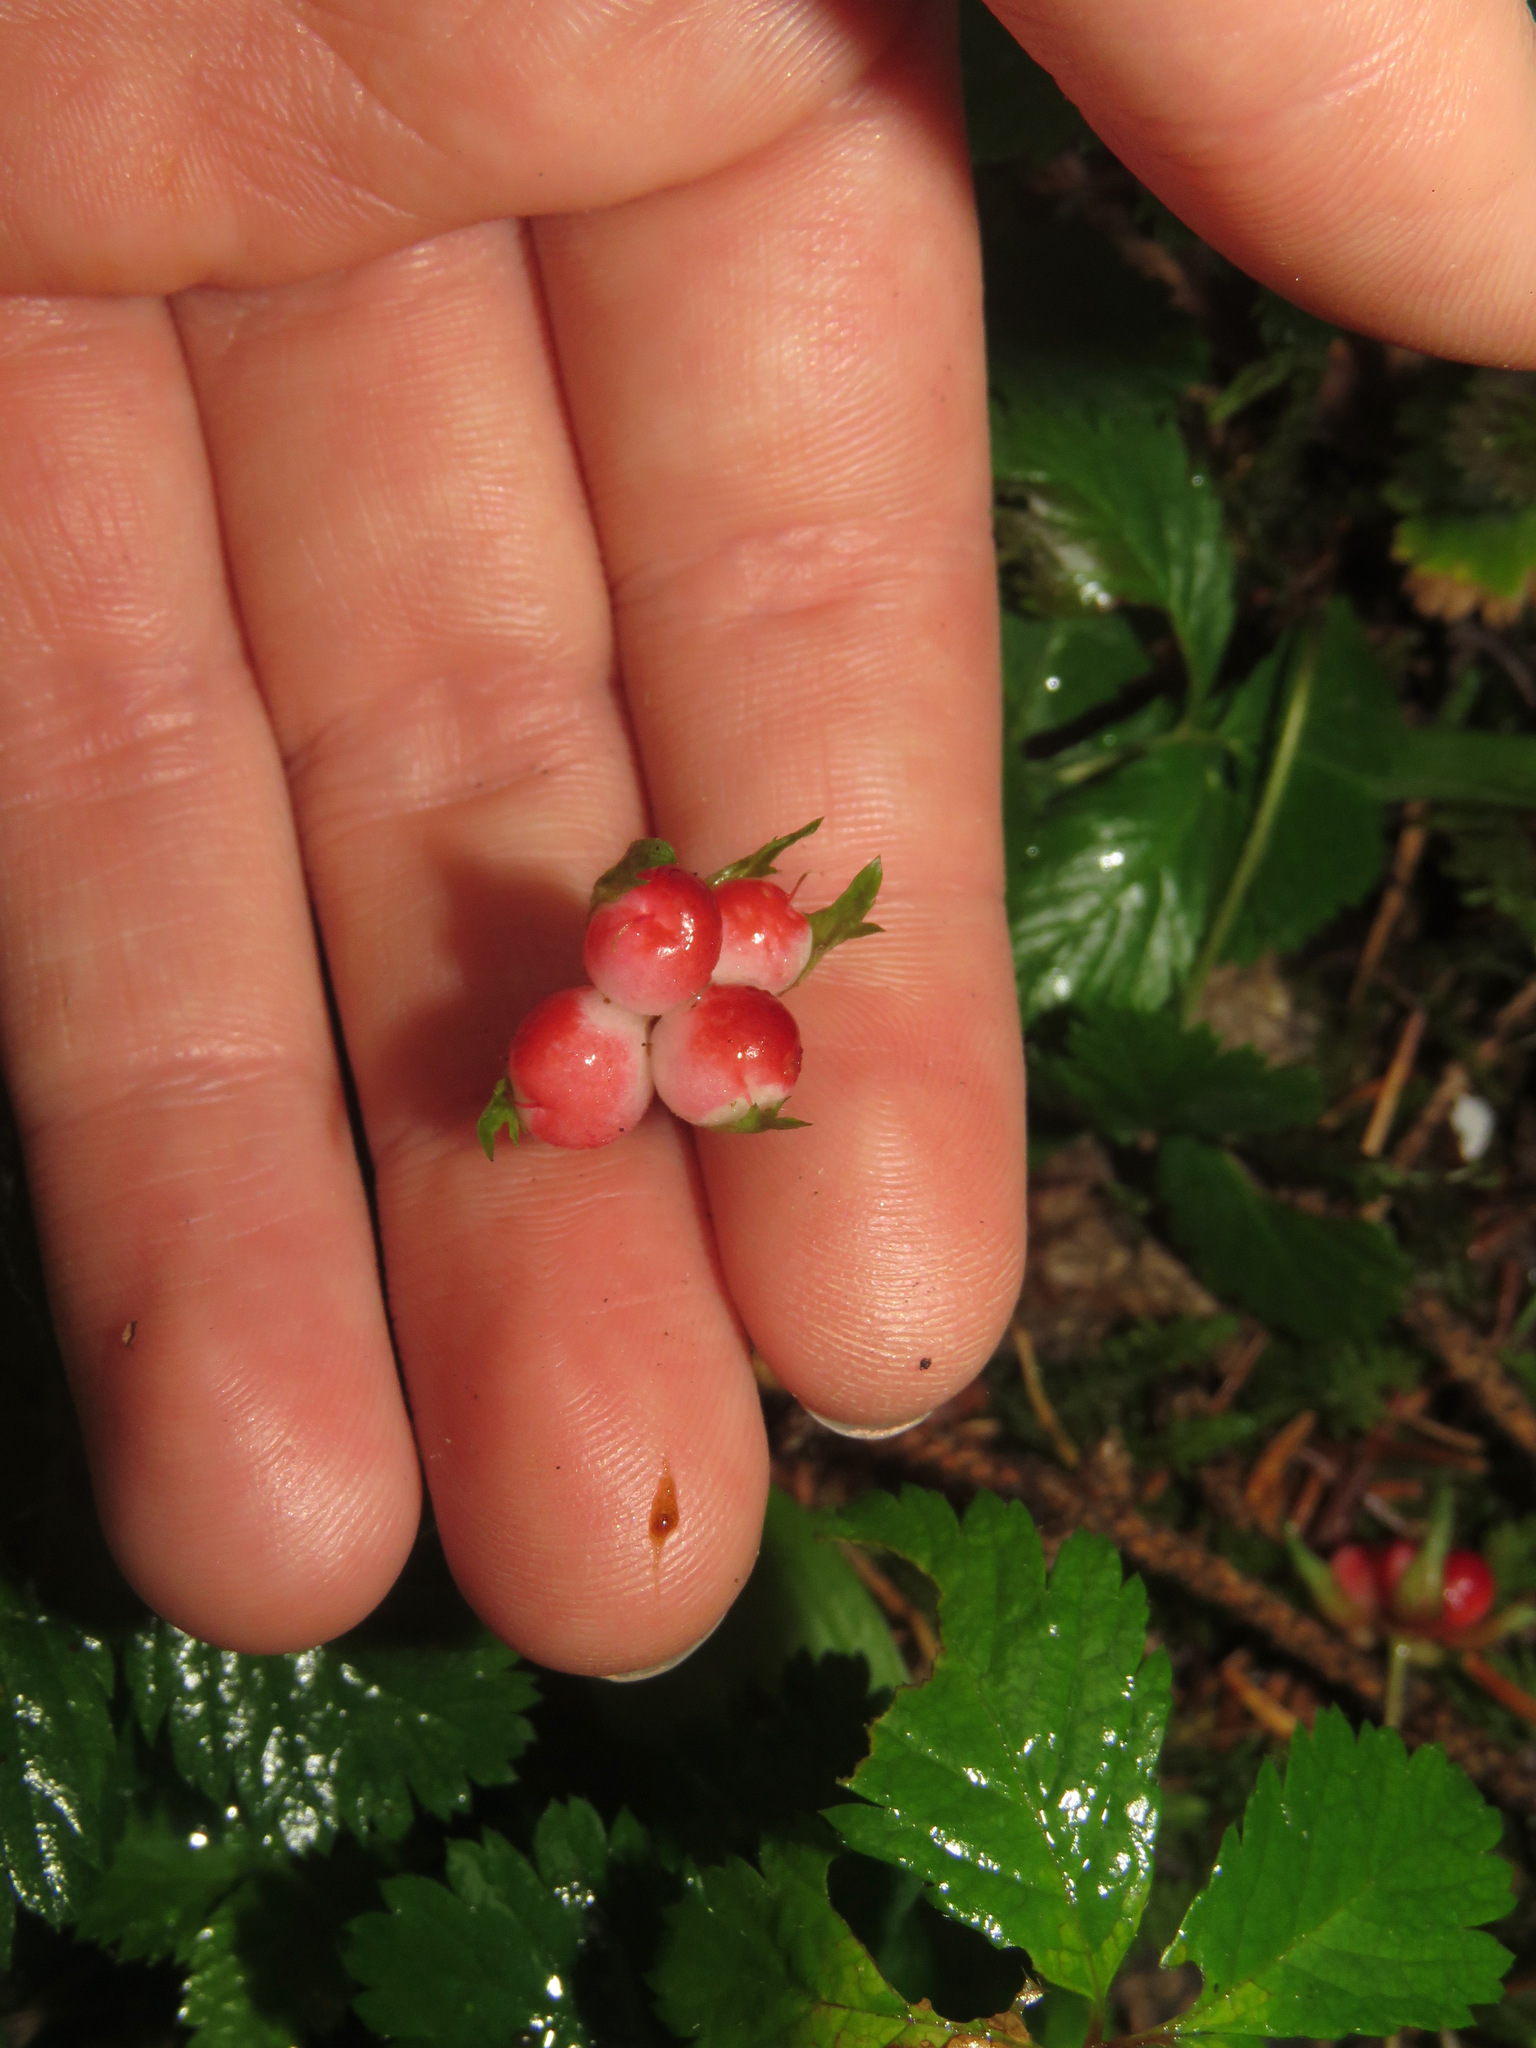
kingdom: Plantae
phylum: Tracheophyta
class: Magnoliopsida
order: Rosales
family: Rosaceae
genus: Rubus
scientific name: Rubus pedatus
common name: Creeping raspberry
